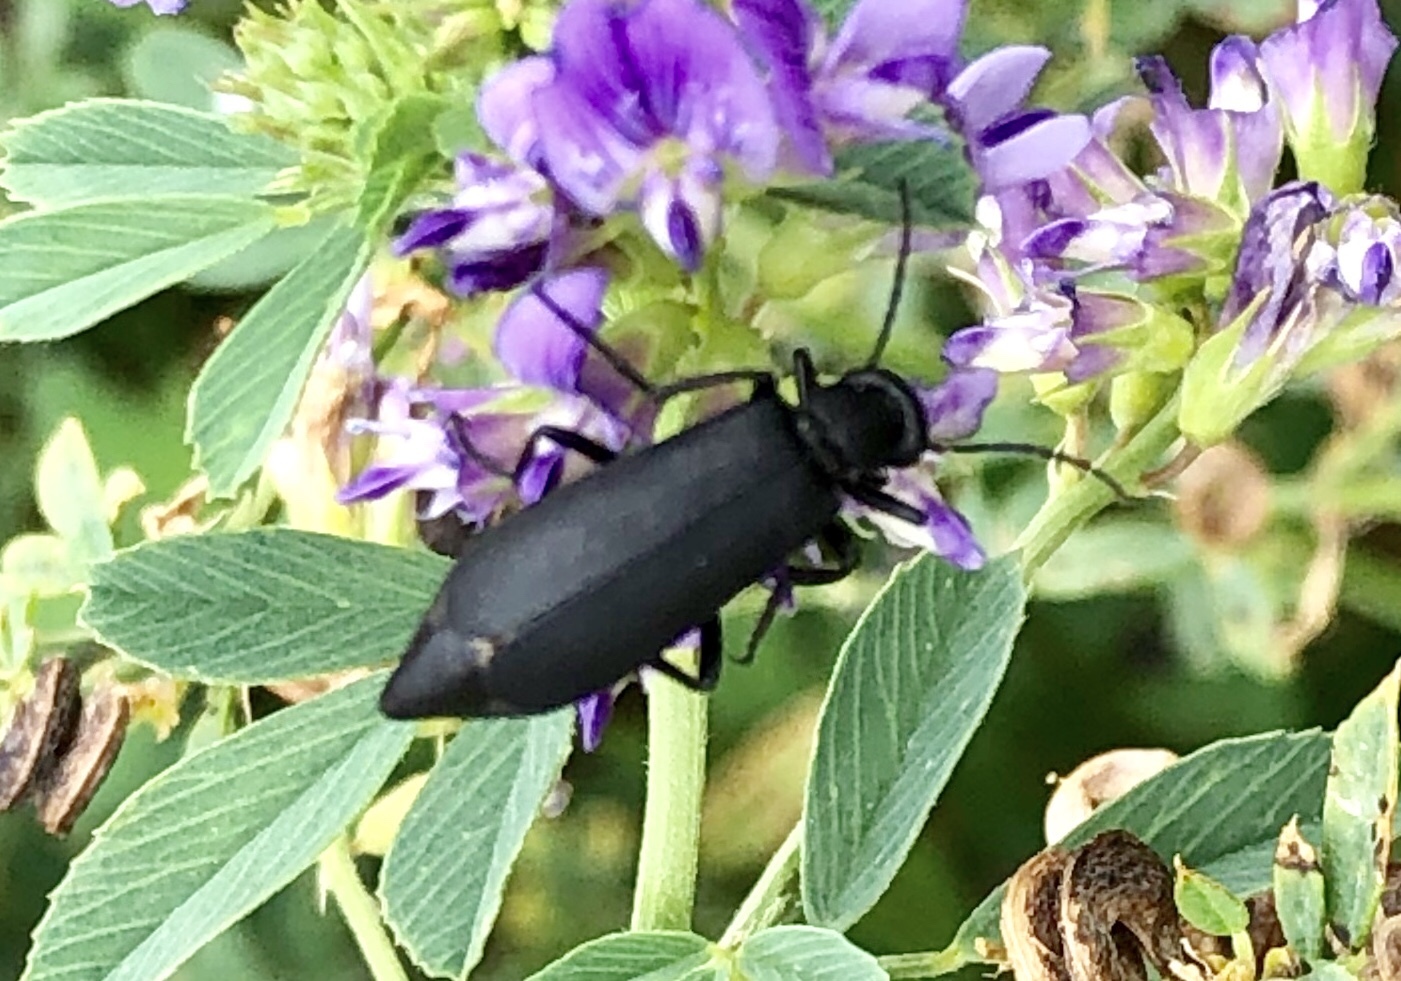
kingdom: Animalia
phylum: Arthropoda
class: Insecta
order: Coleoptera
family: Meloidae
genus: Epicauta
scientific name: Epicauta pensylvanica
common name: Black blister beetle
